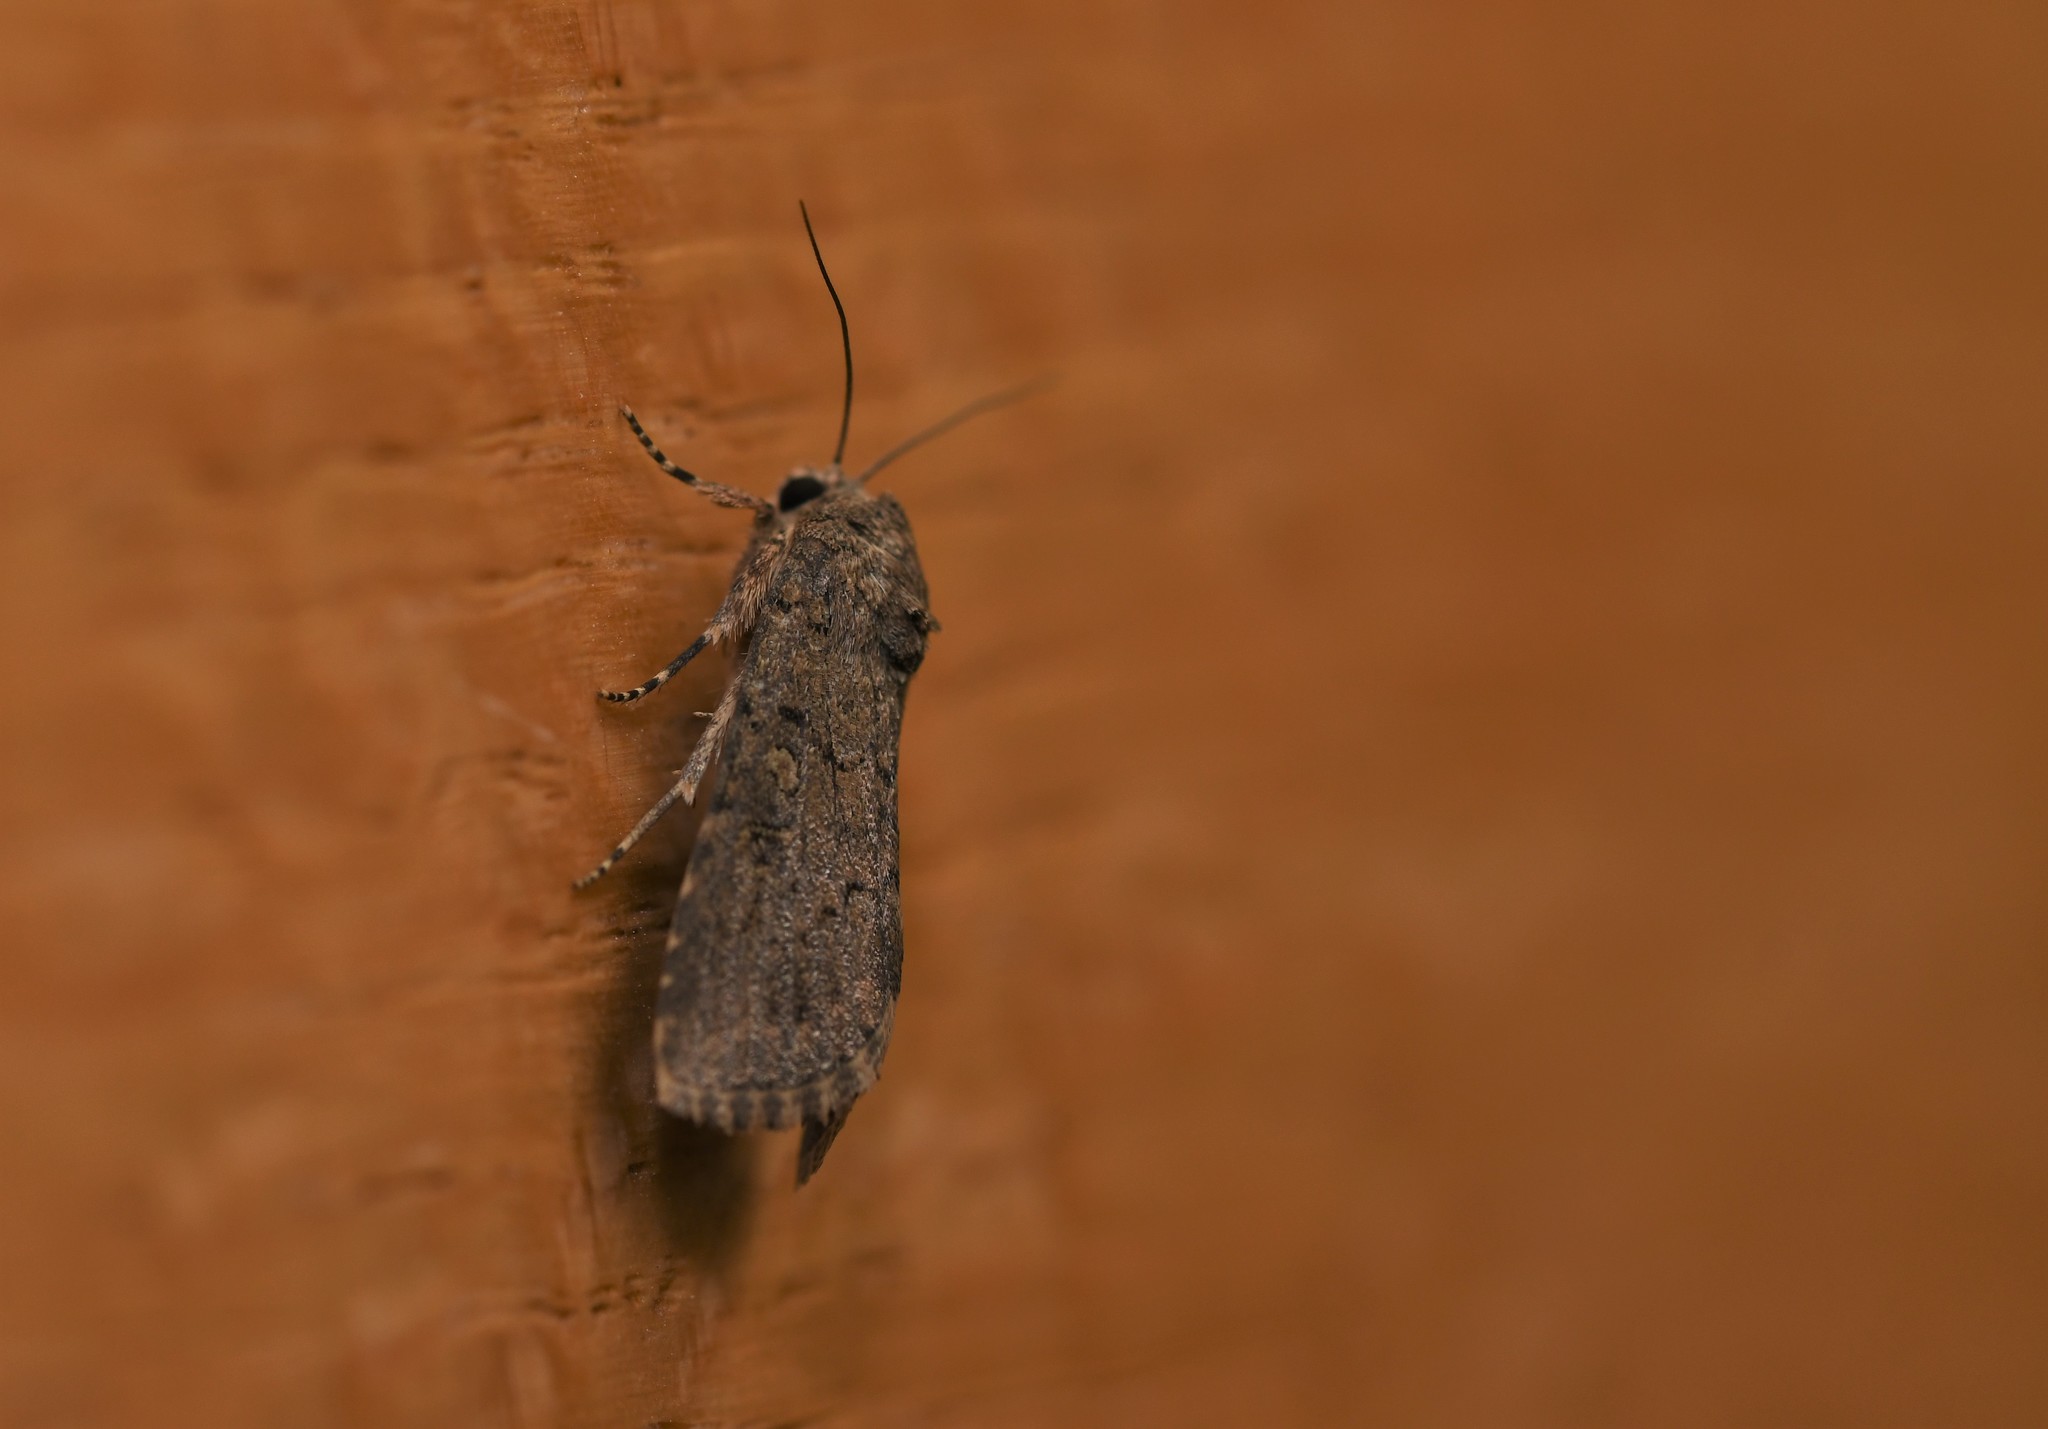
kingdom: Animalia
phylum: Arthropoda
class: Insecta
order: Lepidoptera
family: Noctuidae
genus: Spodoptera
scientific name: Spodoptera cilium
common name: Dark mottled willow
